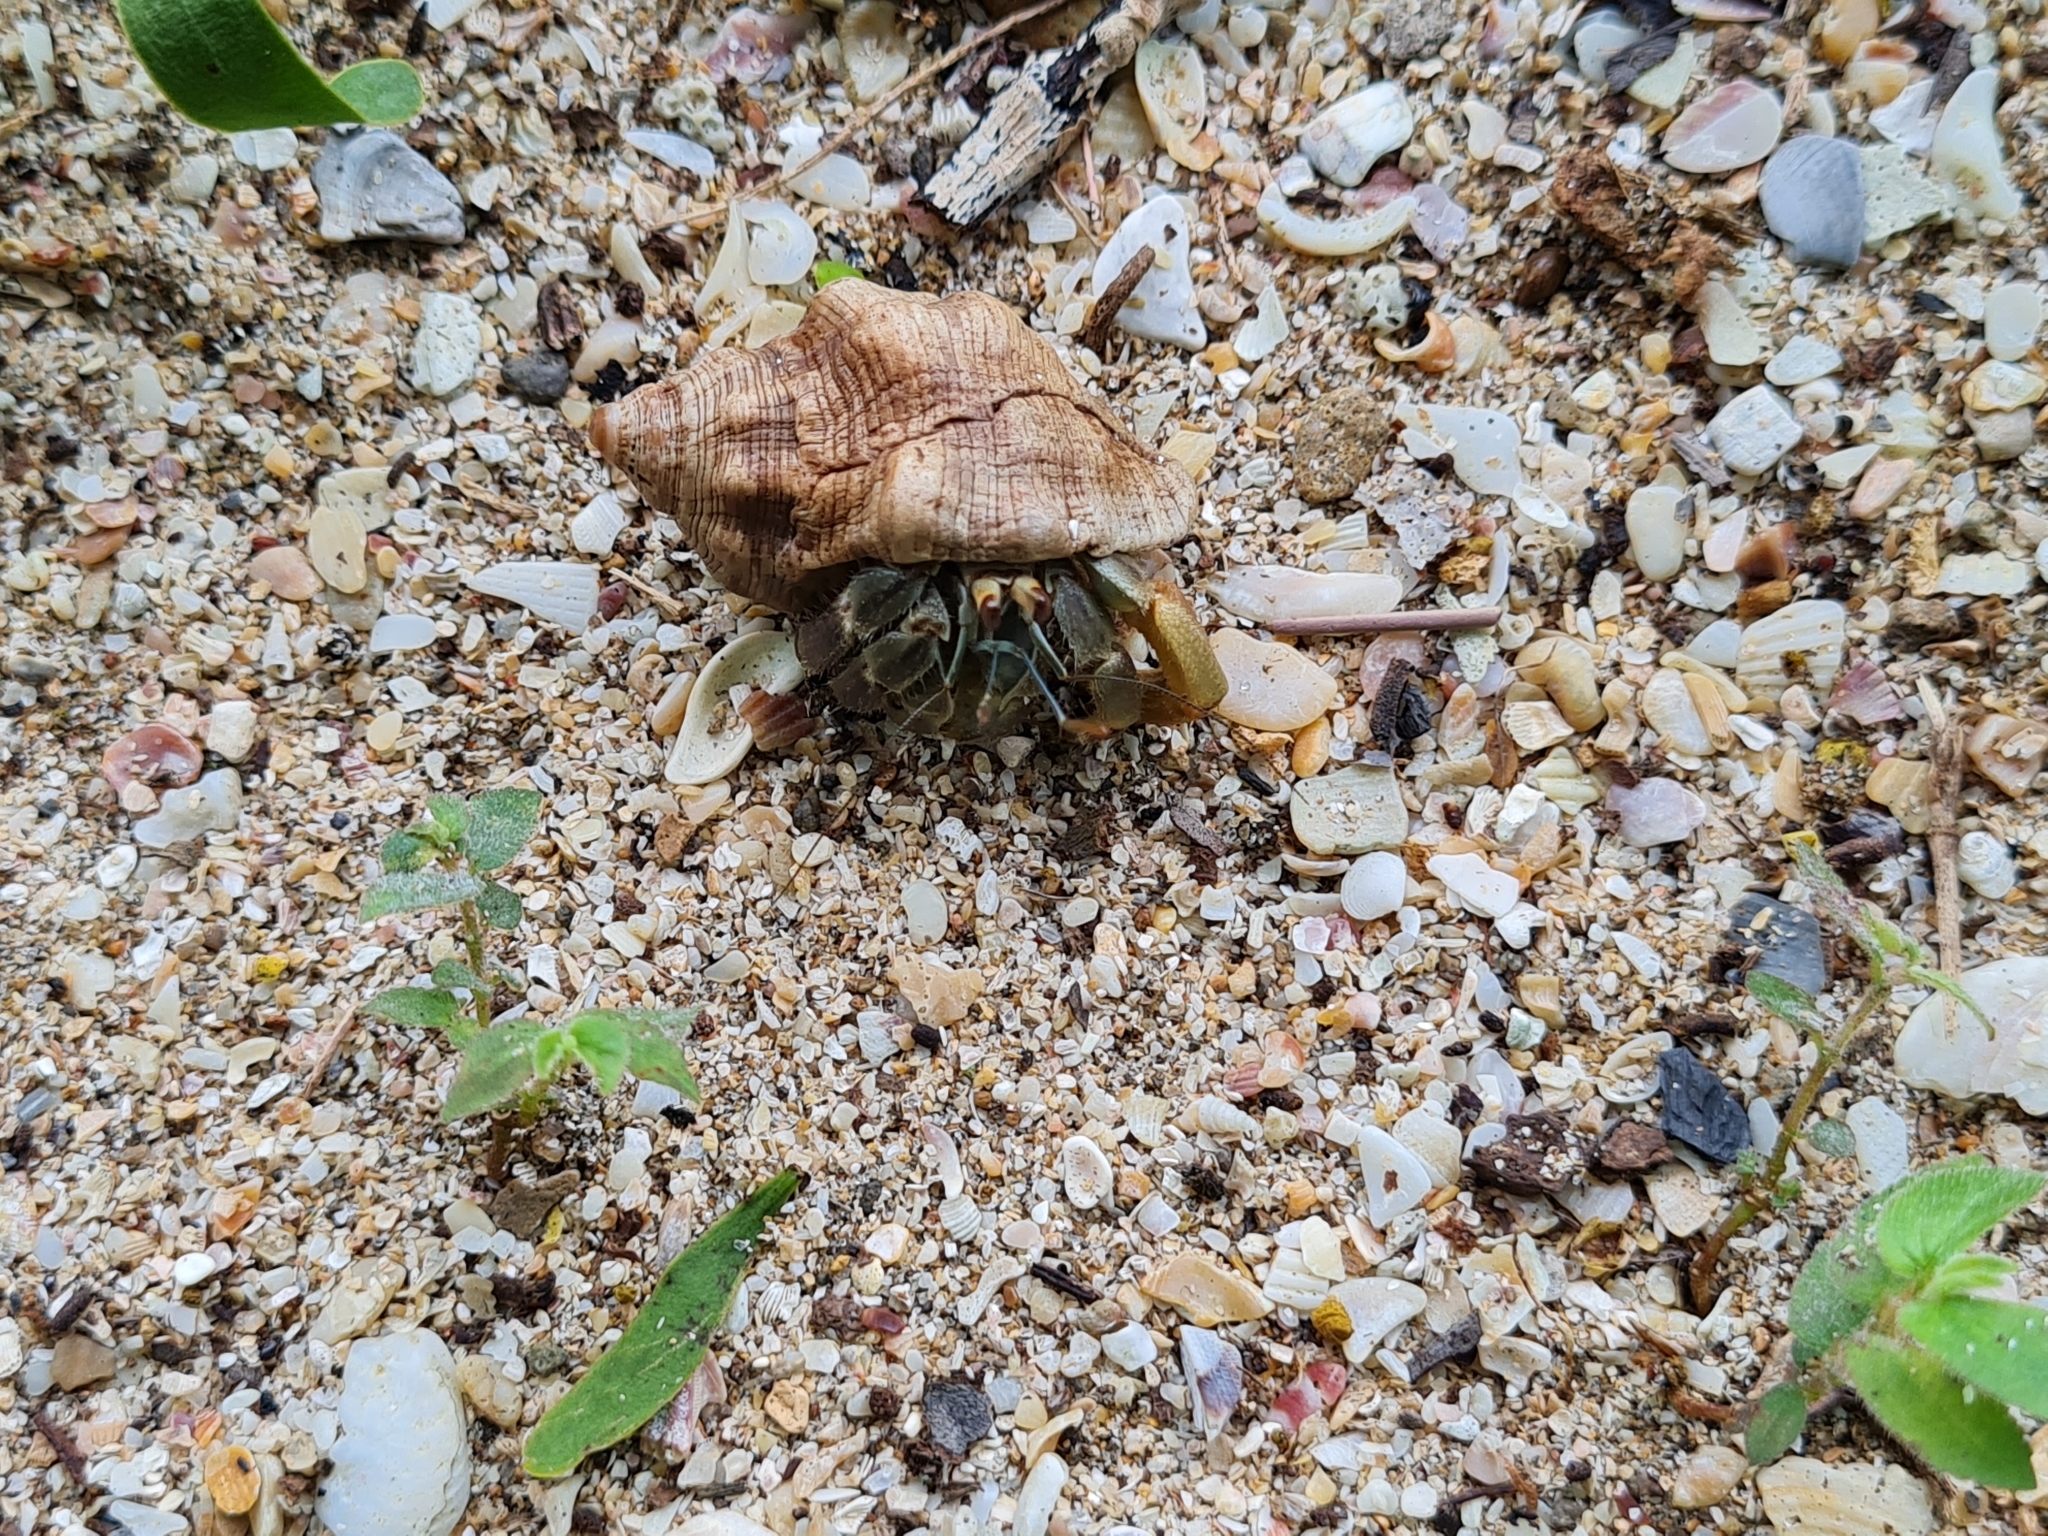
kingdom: Animalia
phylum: Arthropoda
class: Malacostraca
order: Decapoda
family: Coenobitidae
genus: Coenobita
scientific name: Coenobita compressus
